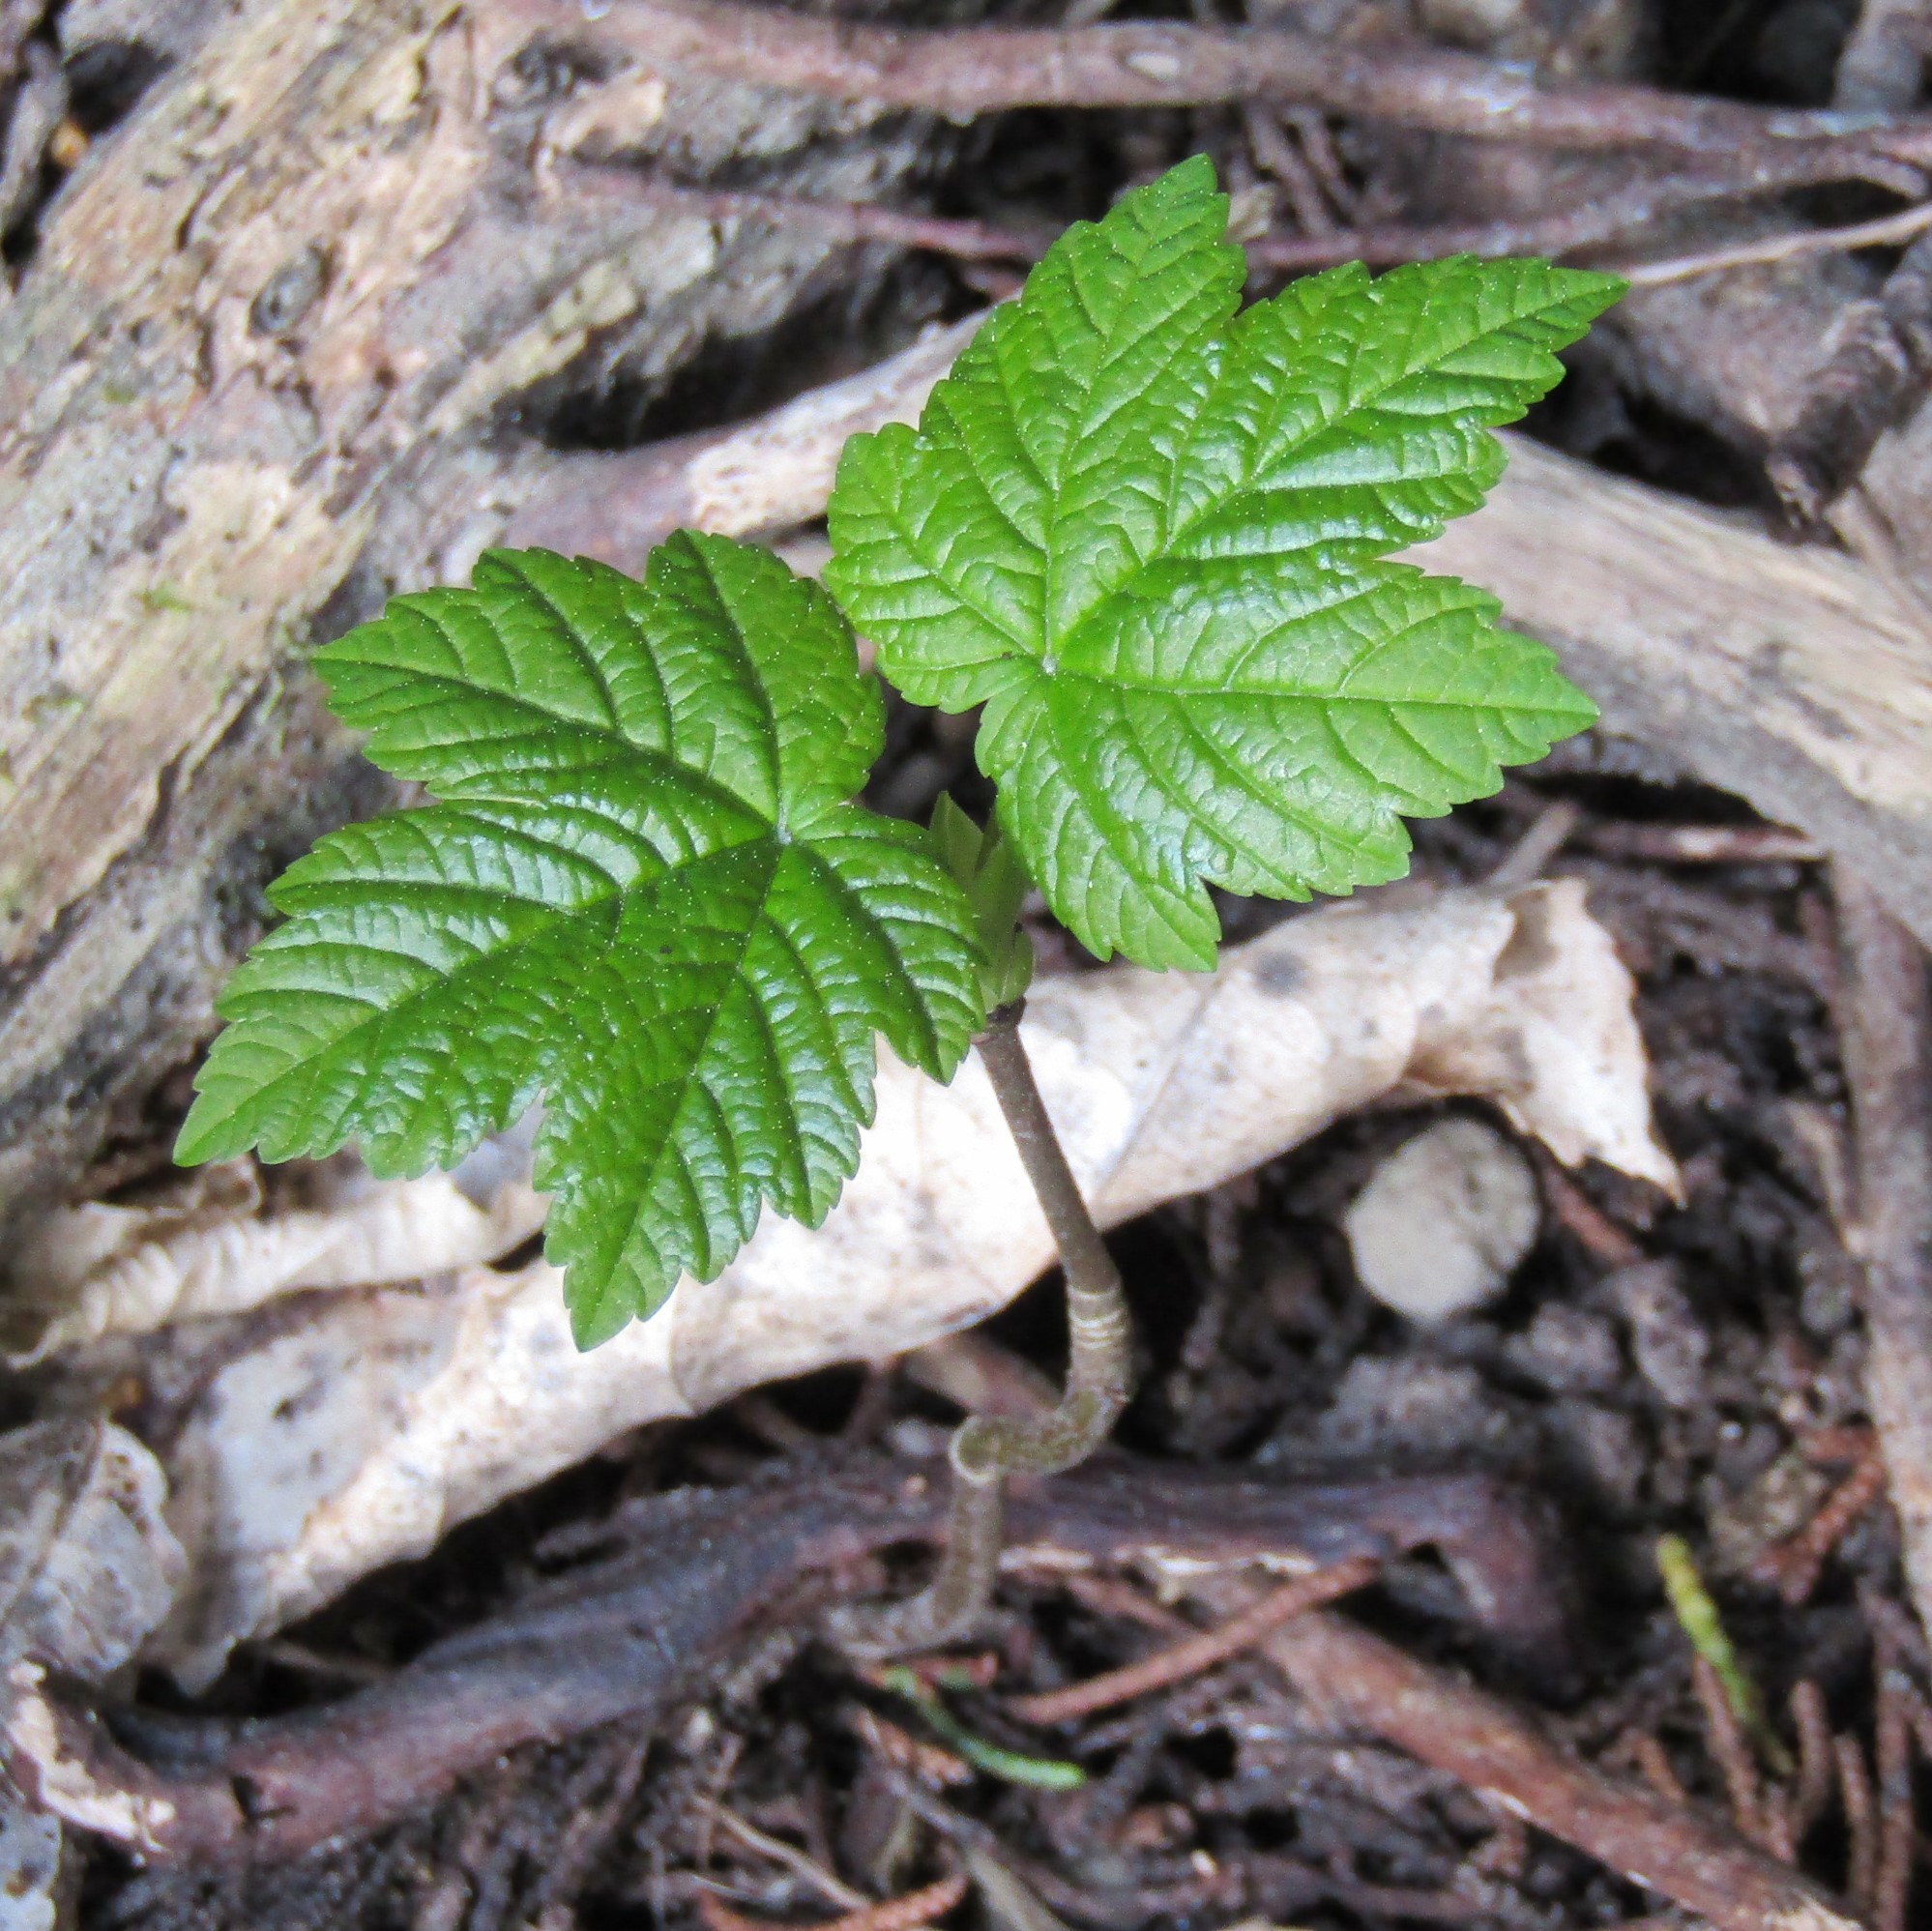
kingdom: Plantae
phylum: Tracheophyta
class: Magnoliopsida
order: Sapindales
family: Sapindaceae
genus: Acer
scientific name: Acer pseudoplatanus
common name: Sycamore
